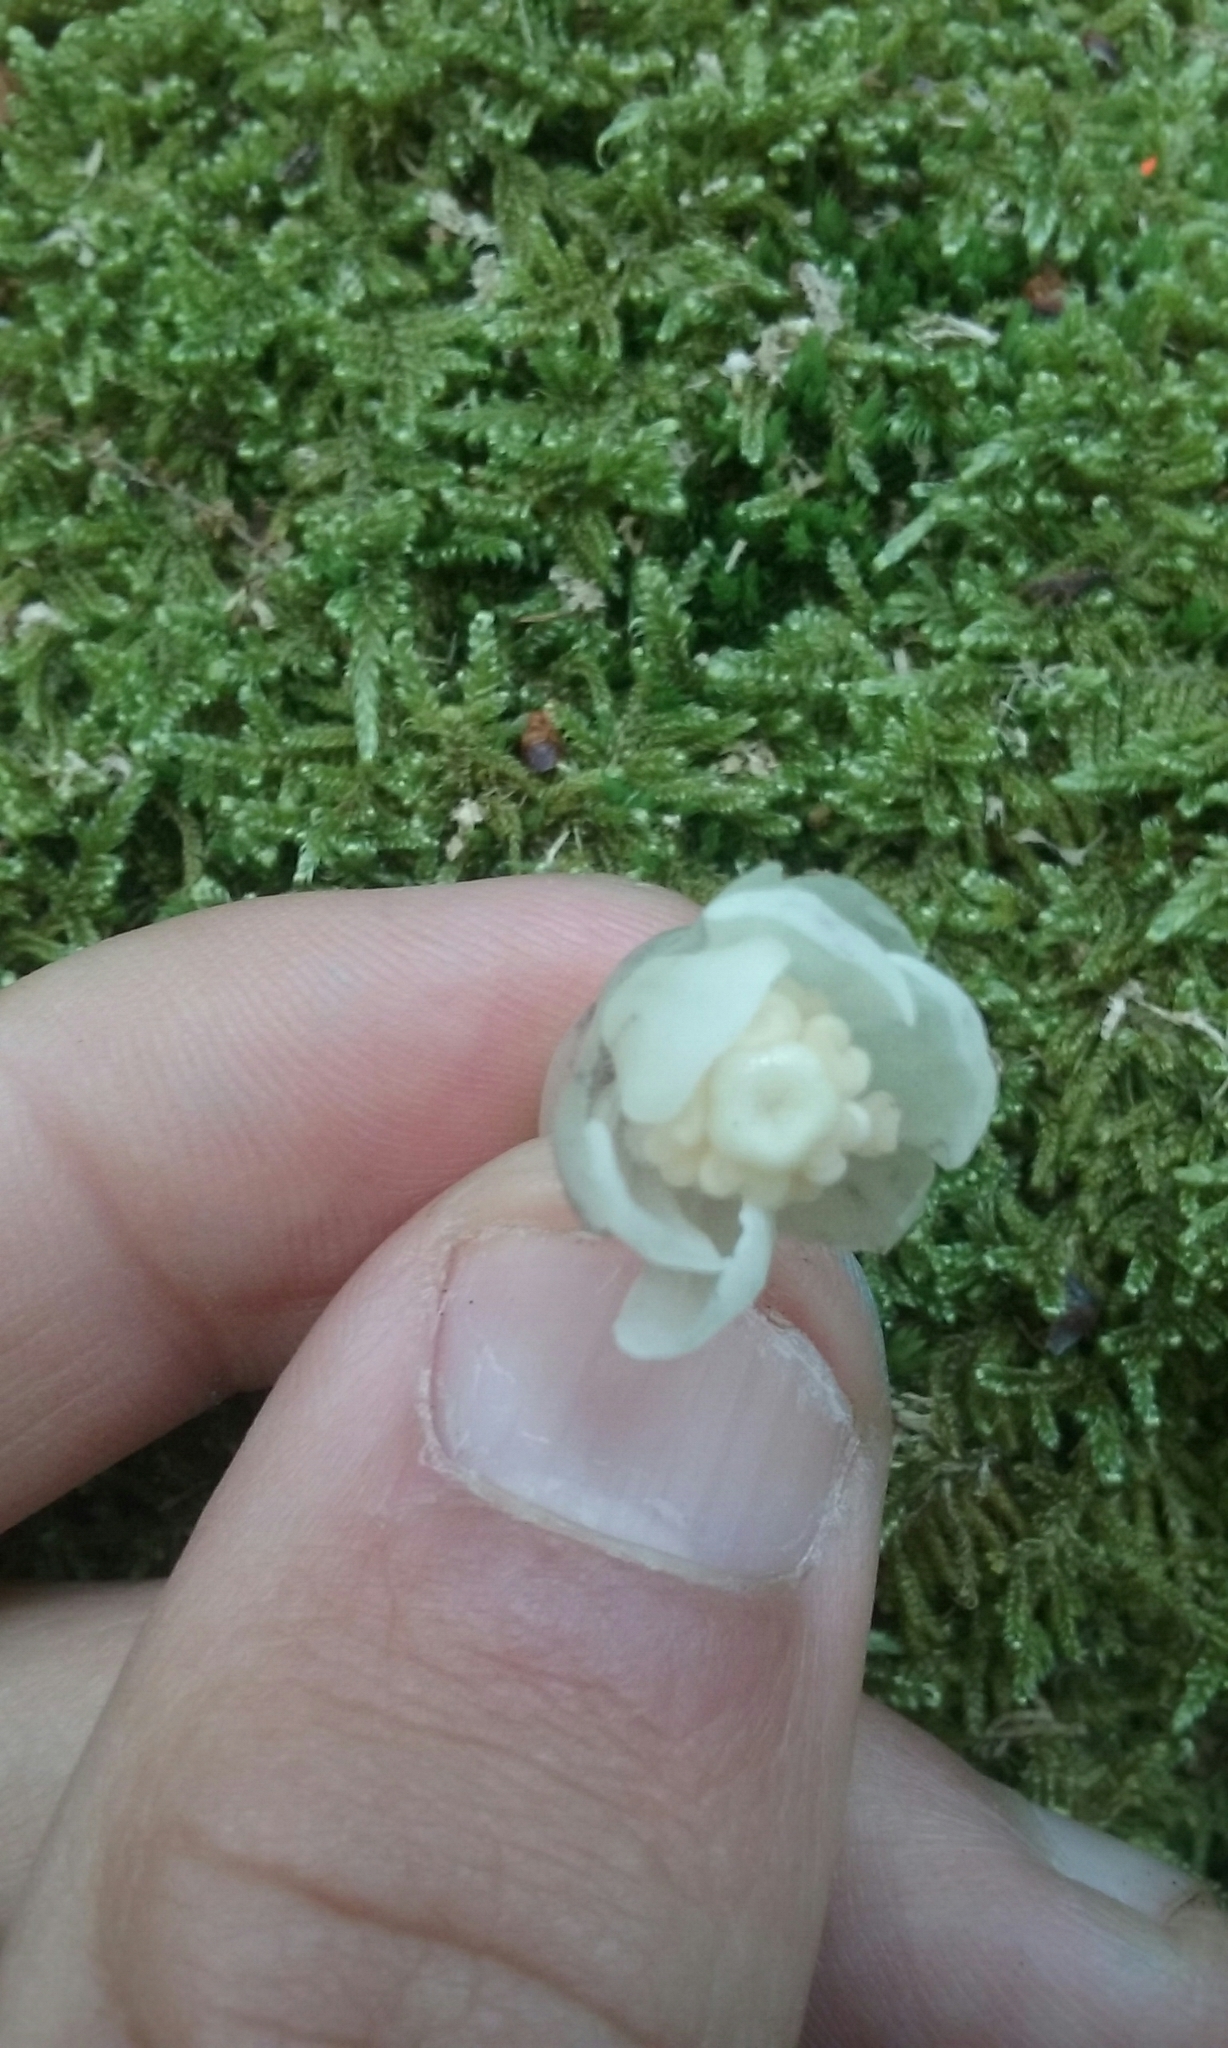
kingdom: Plantae
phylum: Tracheophyta
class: Magnoliopsida
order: Ericales
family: Ericaceae
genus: Monotropa
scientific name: Monotropa uniflora
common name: Convulsion root
